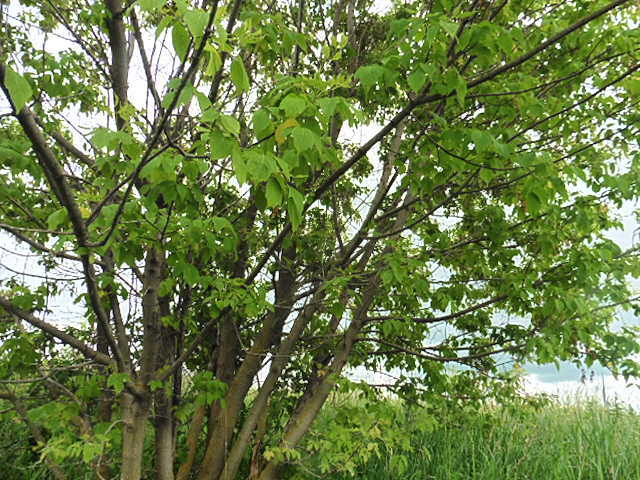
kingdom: Plantae
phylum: Tracheophyta
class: Magnoliopsida
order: Sapindales
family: Sapindaceae
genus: Acer
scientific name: Acer negundo
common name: Ashleaf maple
